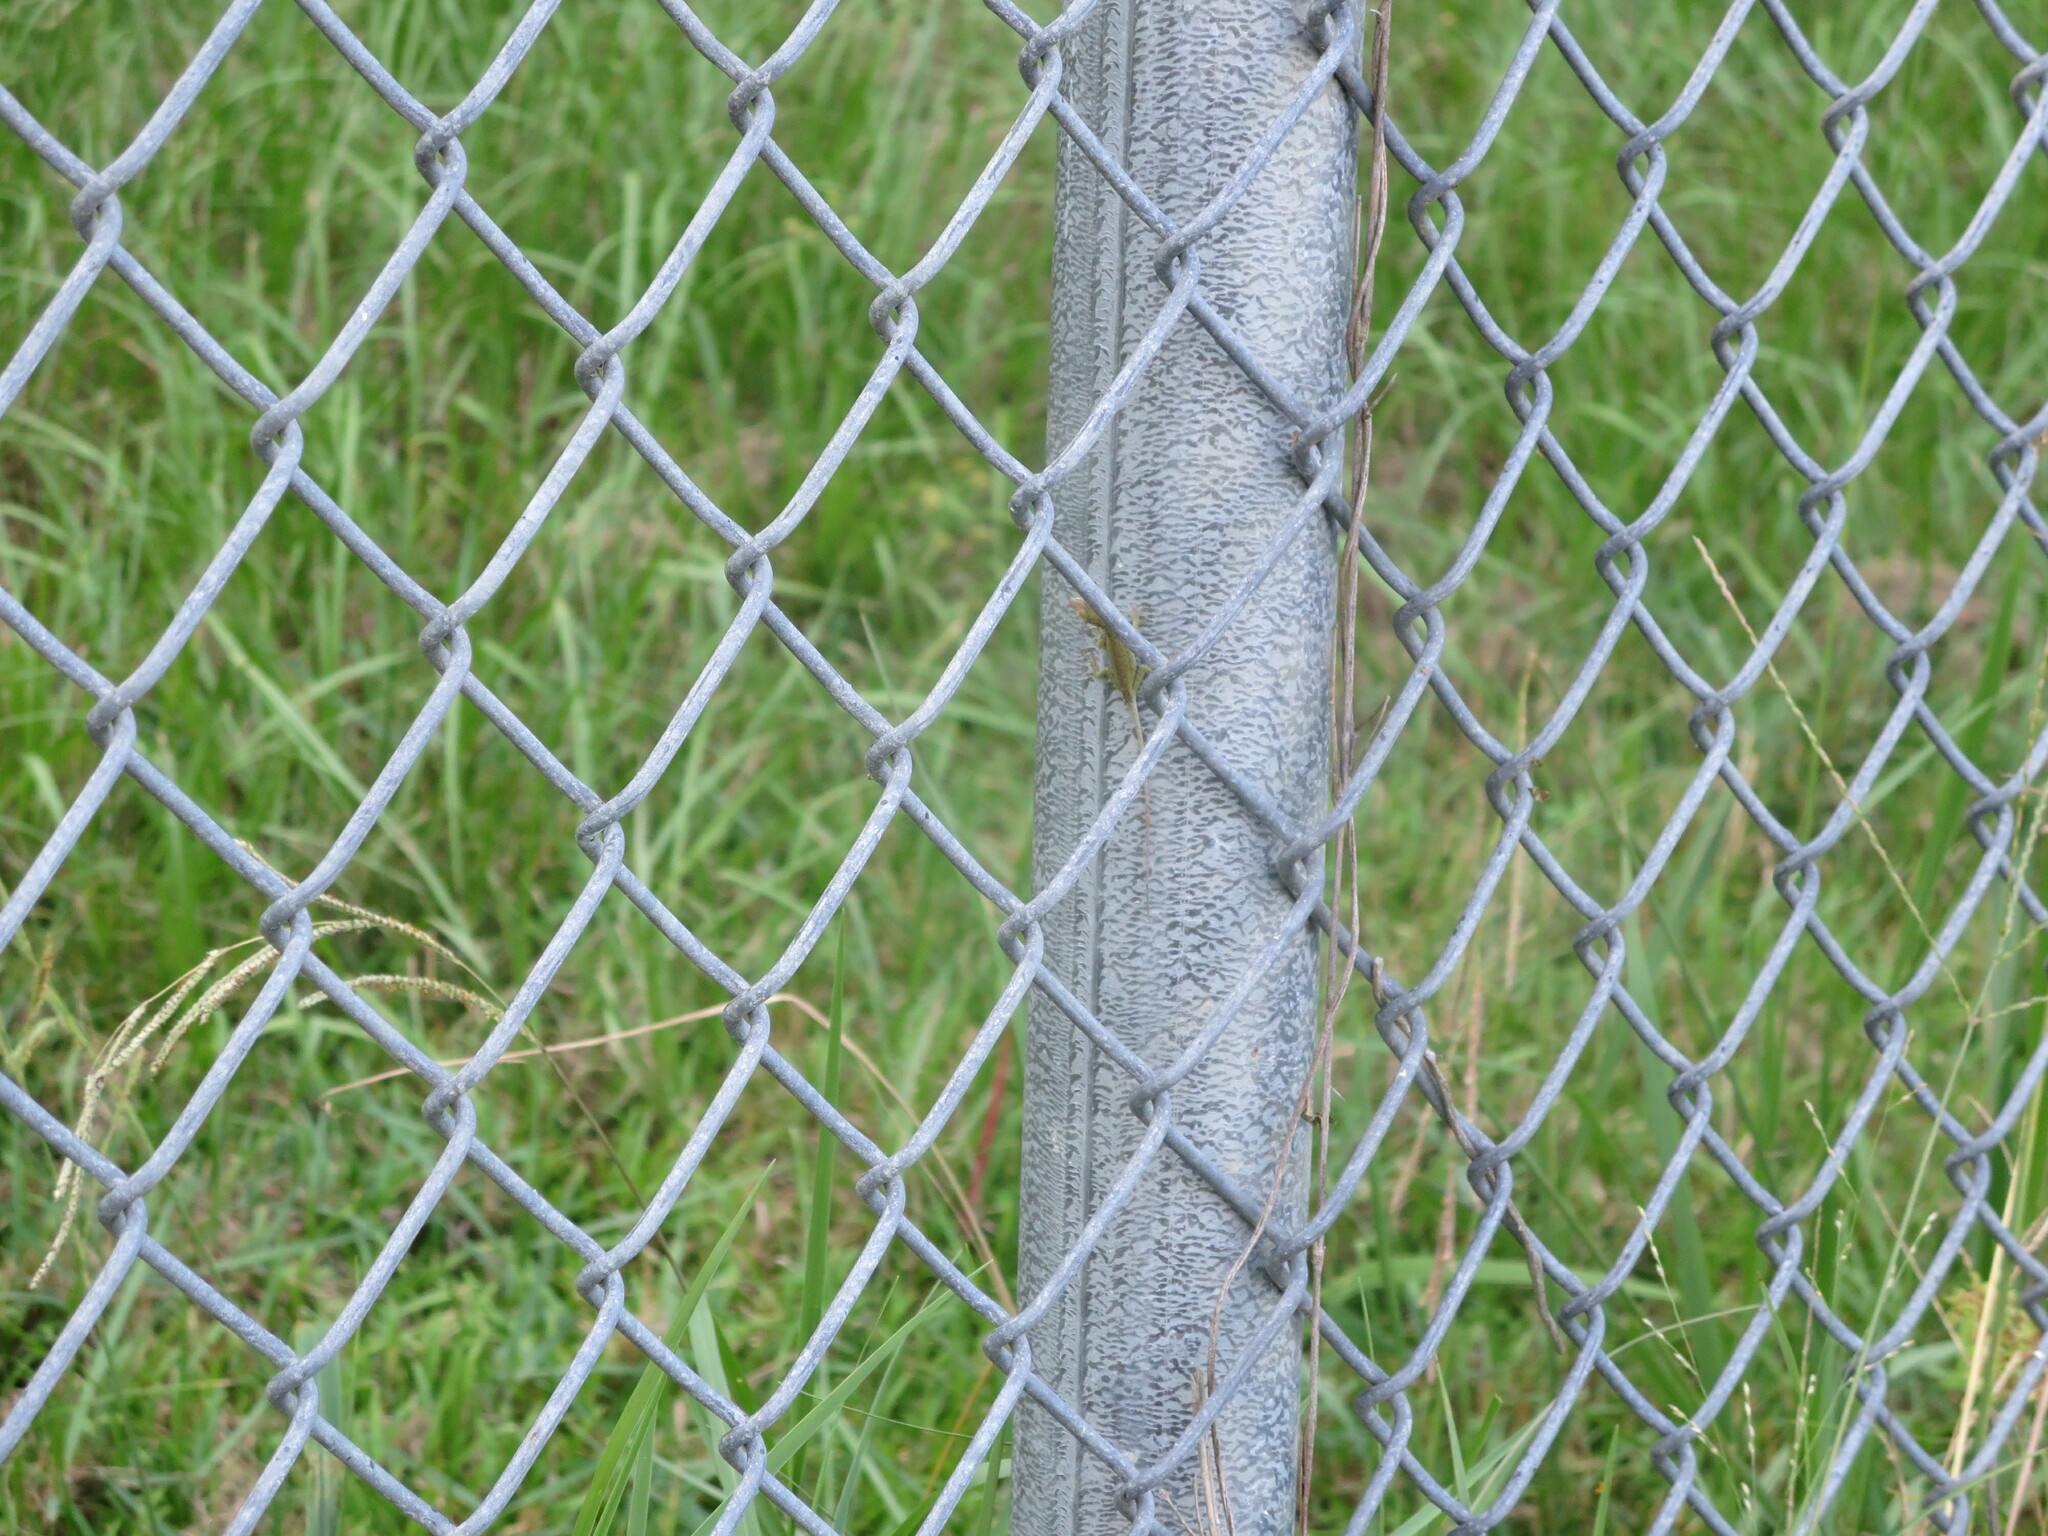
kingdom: Animalia
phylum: Chordata
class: Squamata
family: Dactyloidae
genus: Anolis
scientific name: Anolis carolinensis
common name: Green anole
